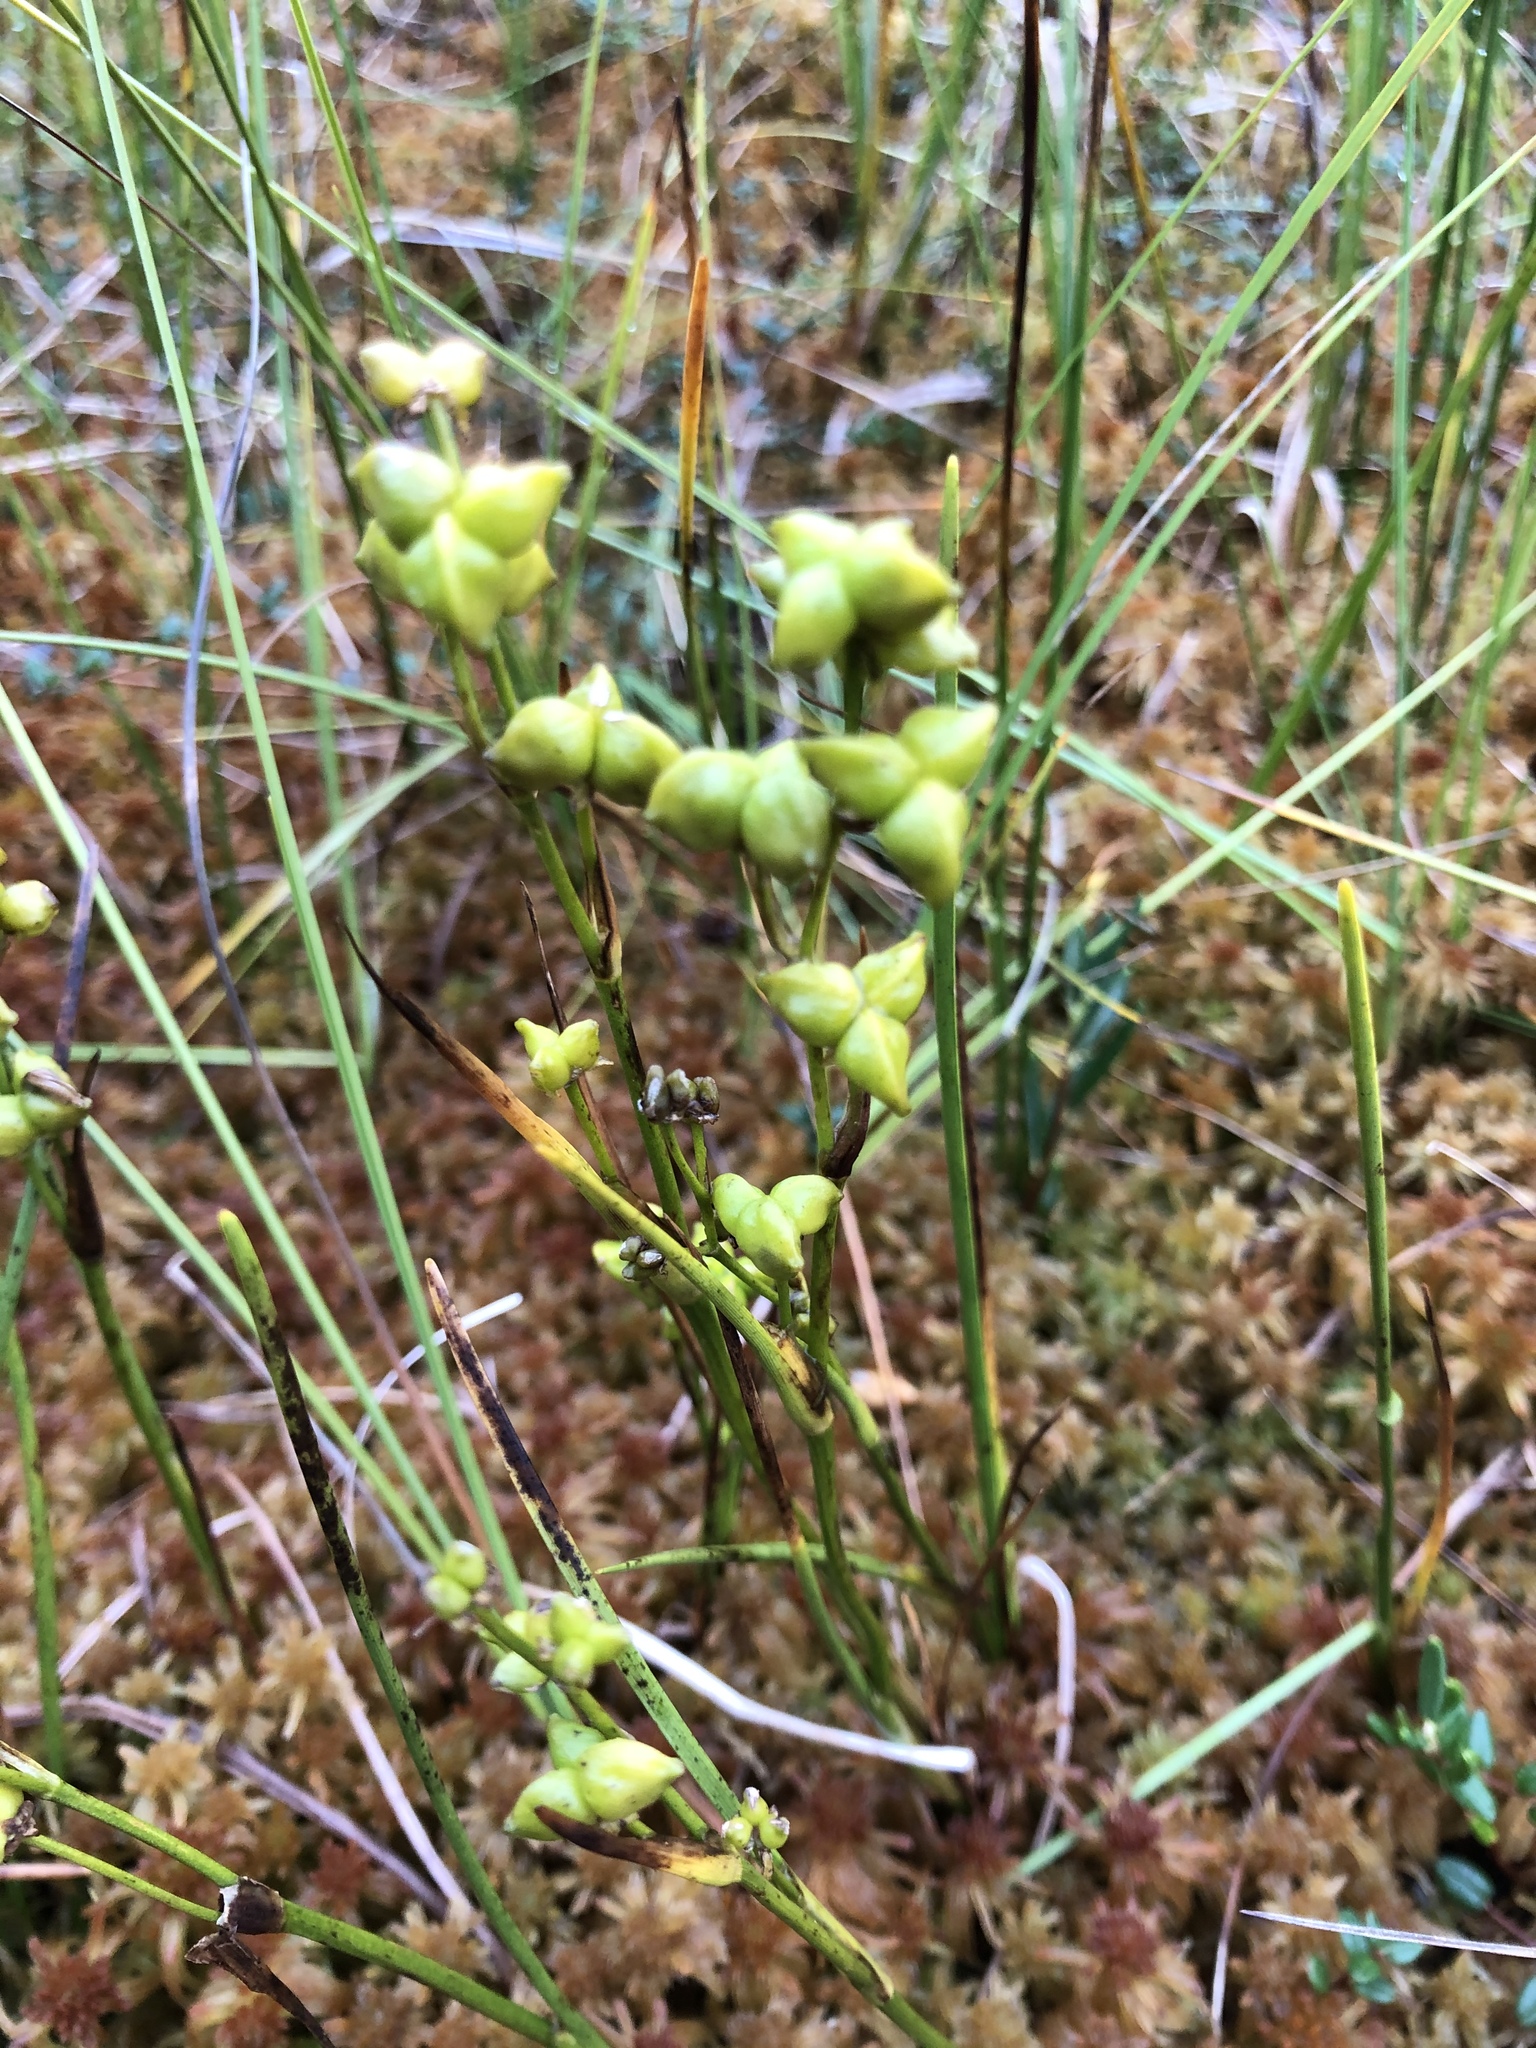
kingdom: Plantae
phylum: Tracheophyta
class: Liliopsida
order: Alismatales
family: Scheuchzeriaceae
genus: Scheuchzeria
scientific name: Scheuchzeria palustris
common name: Rannoch-rush
